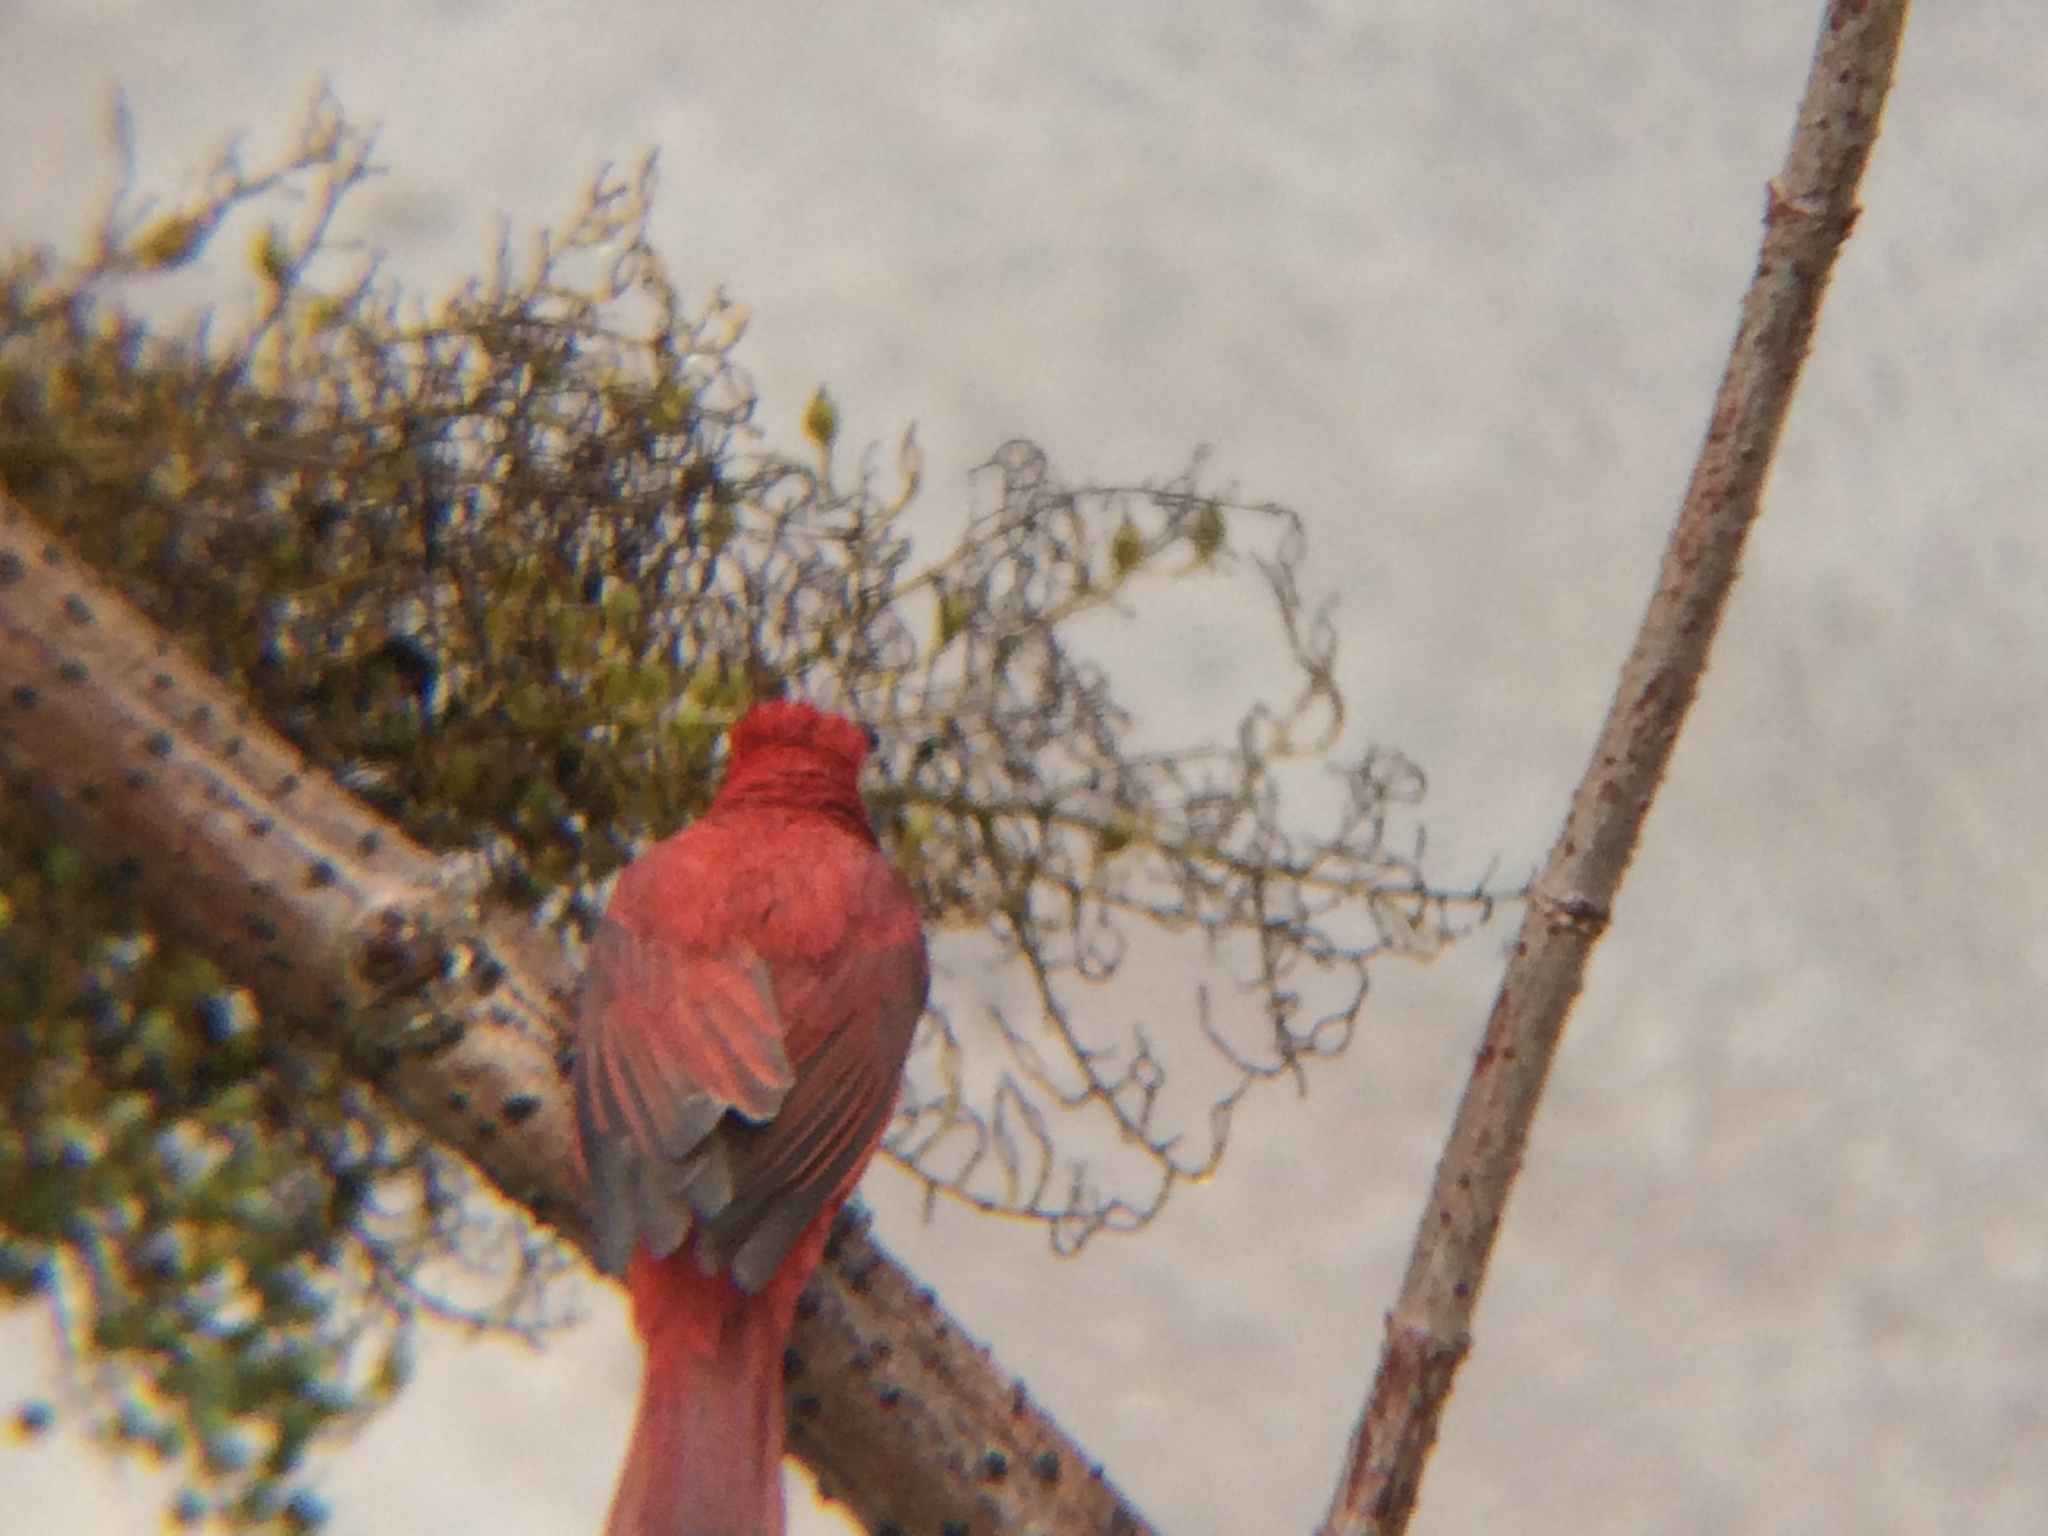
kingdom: Animalia
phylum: Chordata
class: Aves
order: Passeriformes
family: Cardinalidae
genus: Piranga
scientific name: Piranga rubra
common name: Summer tanager
